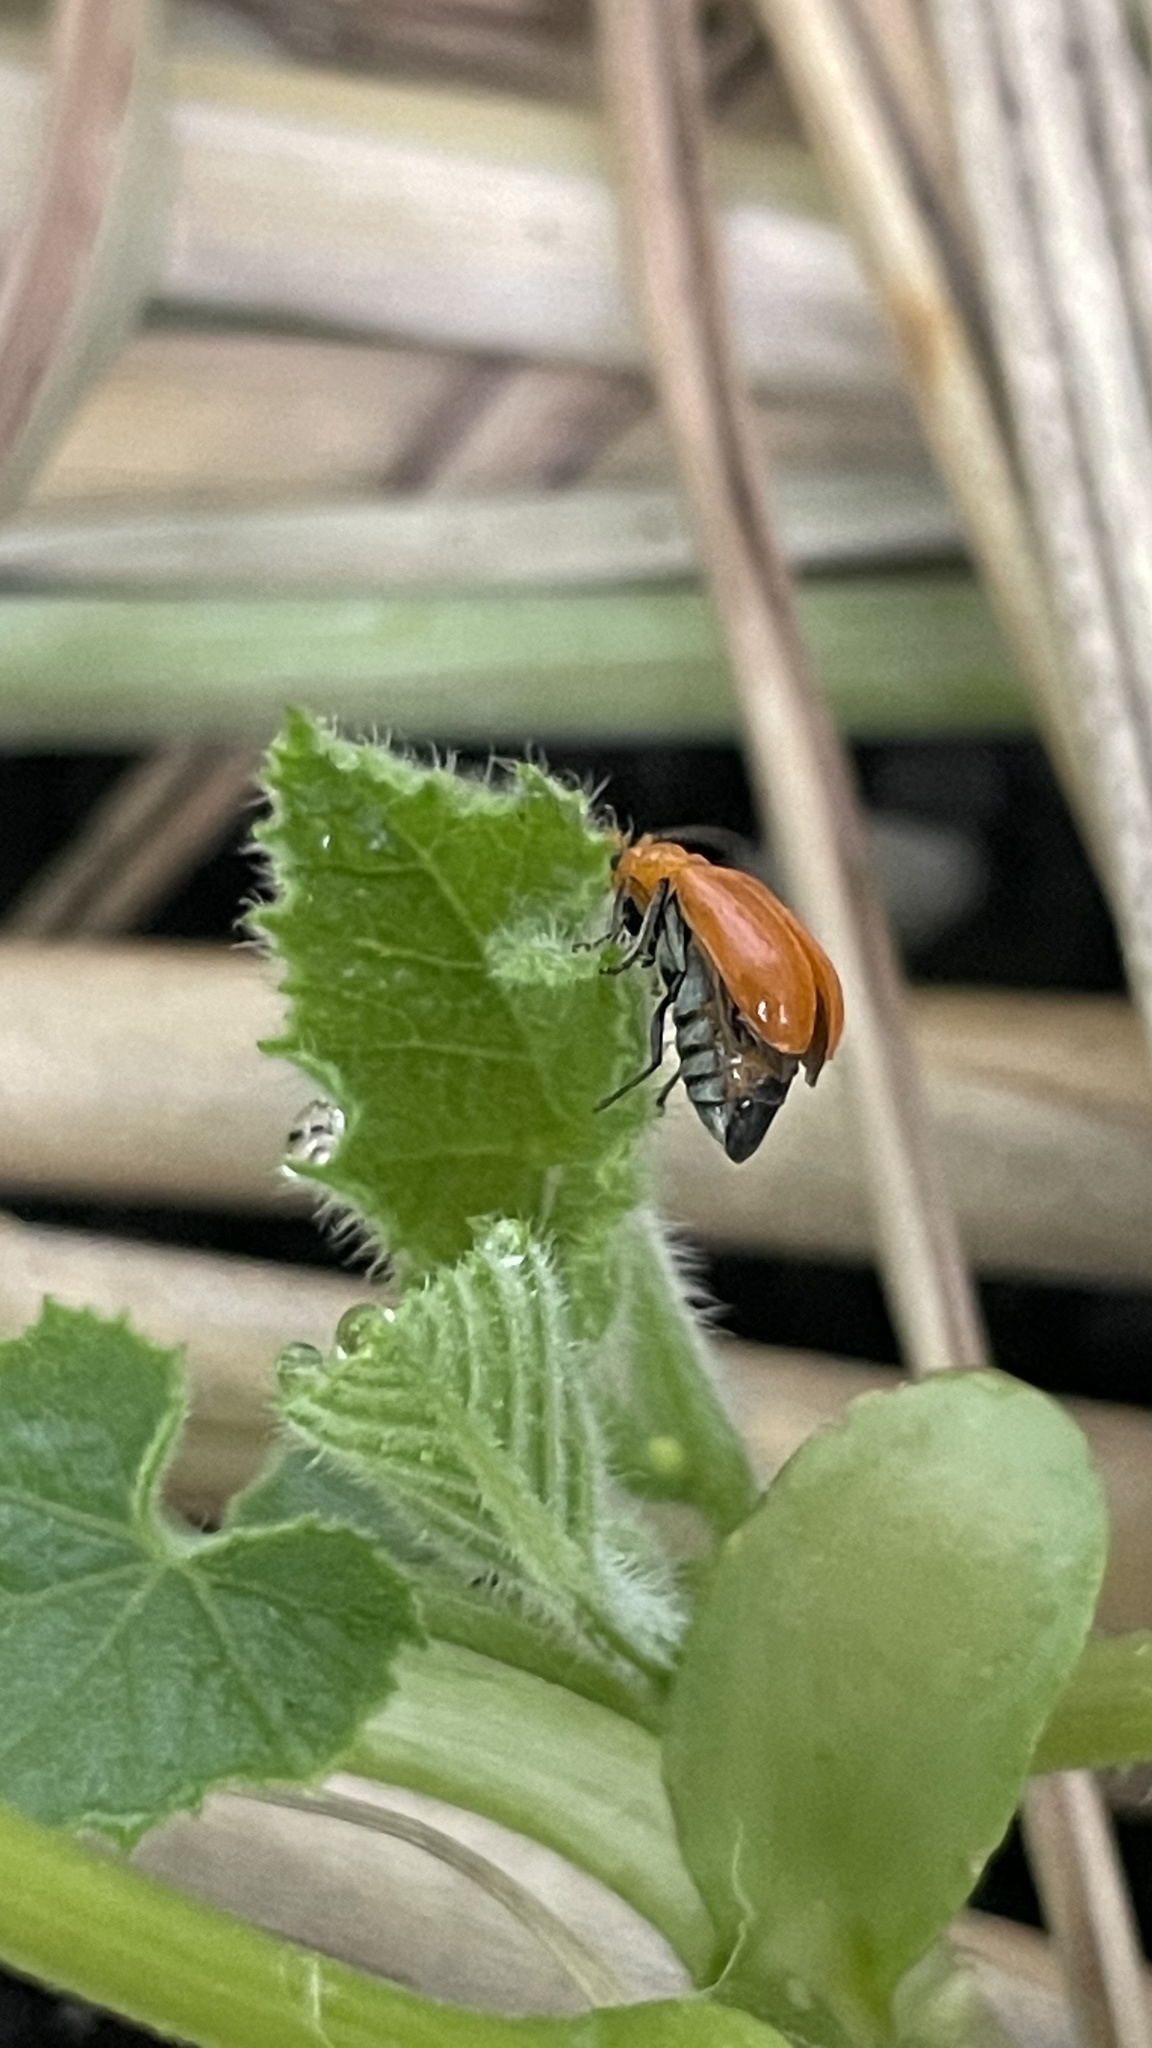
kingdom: Animalia
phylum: Arthropoda
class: Insecta
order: Coleoptera
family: Chrysomelidae
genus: Aulacophora
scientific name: Aulacophora indica
